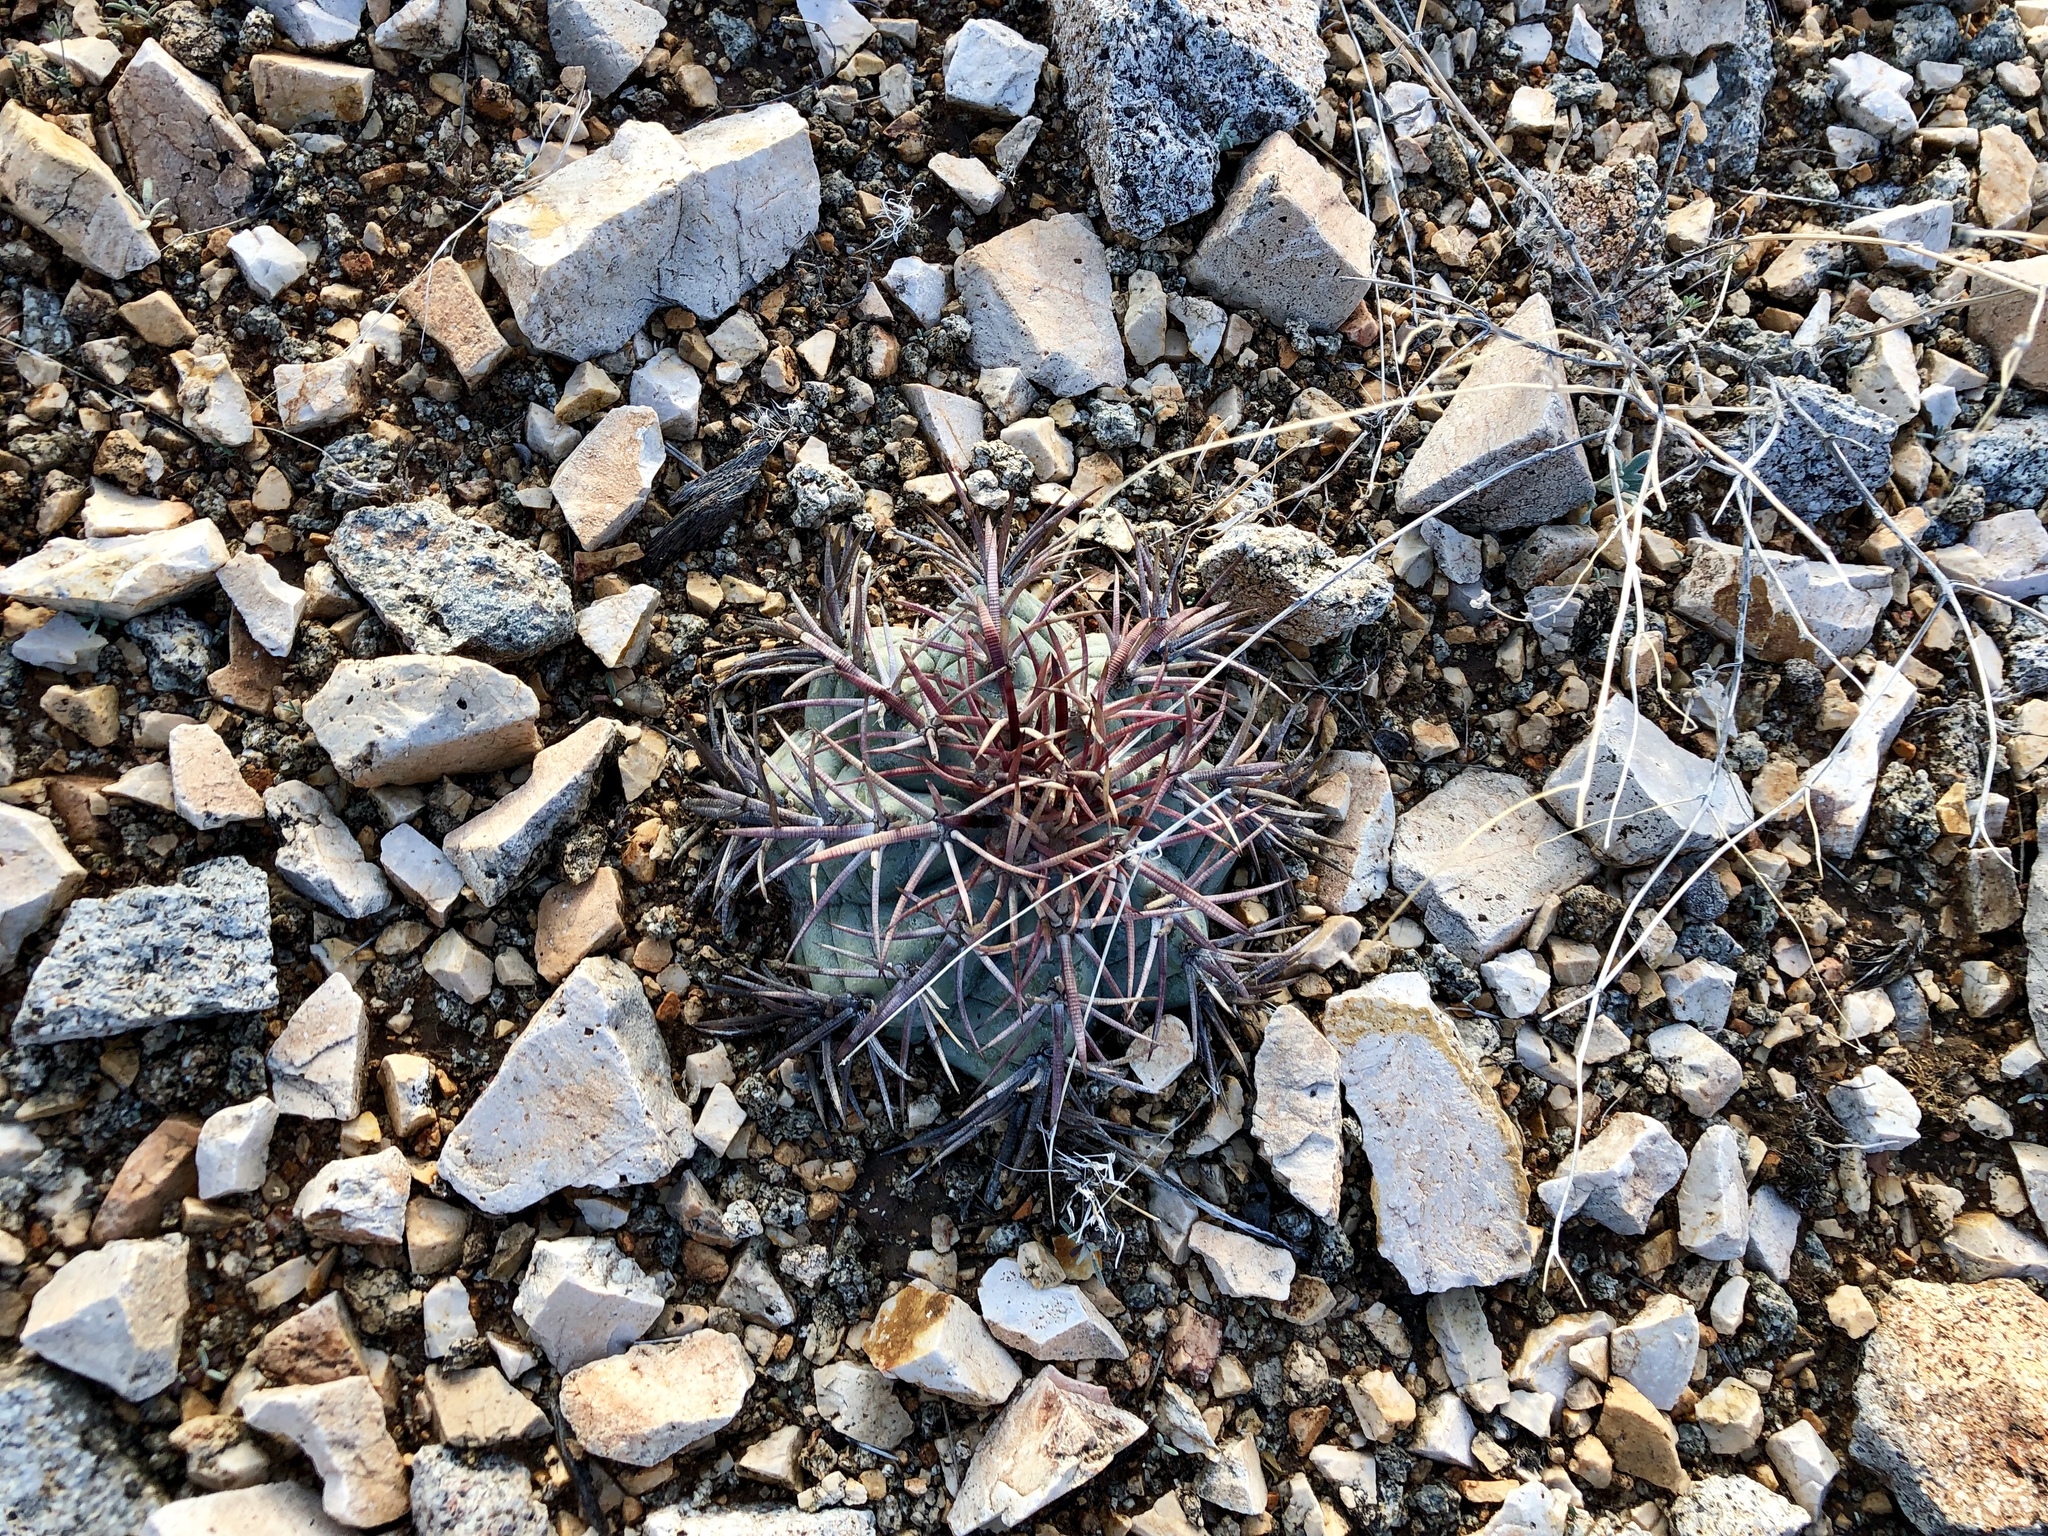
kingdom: Plantae
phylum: Tracheophyta
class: Magnoliopsida
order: Caryophyllales
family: Cactaceae
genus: Echinocactus
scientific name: Echinocactus horizonthalonius
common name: Devilshead
